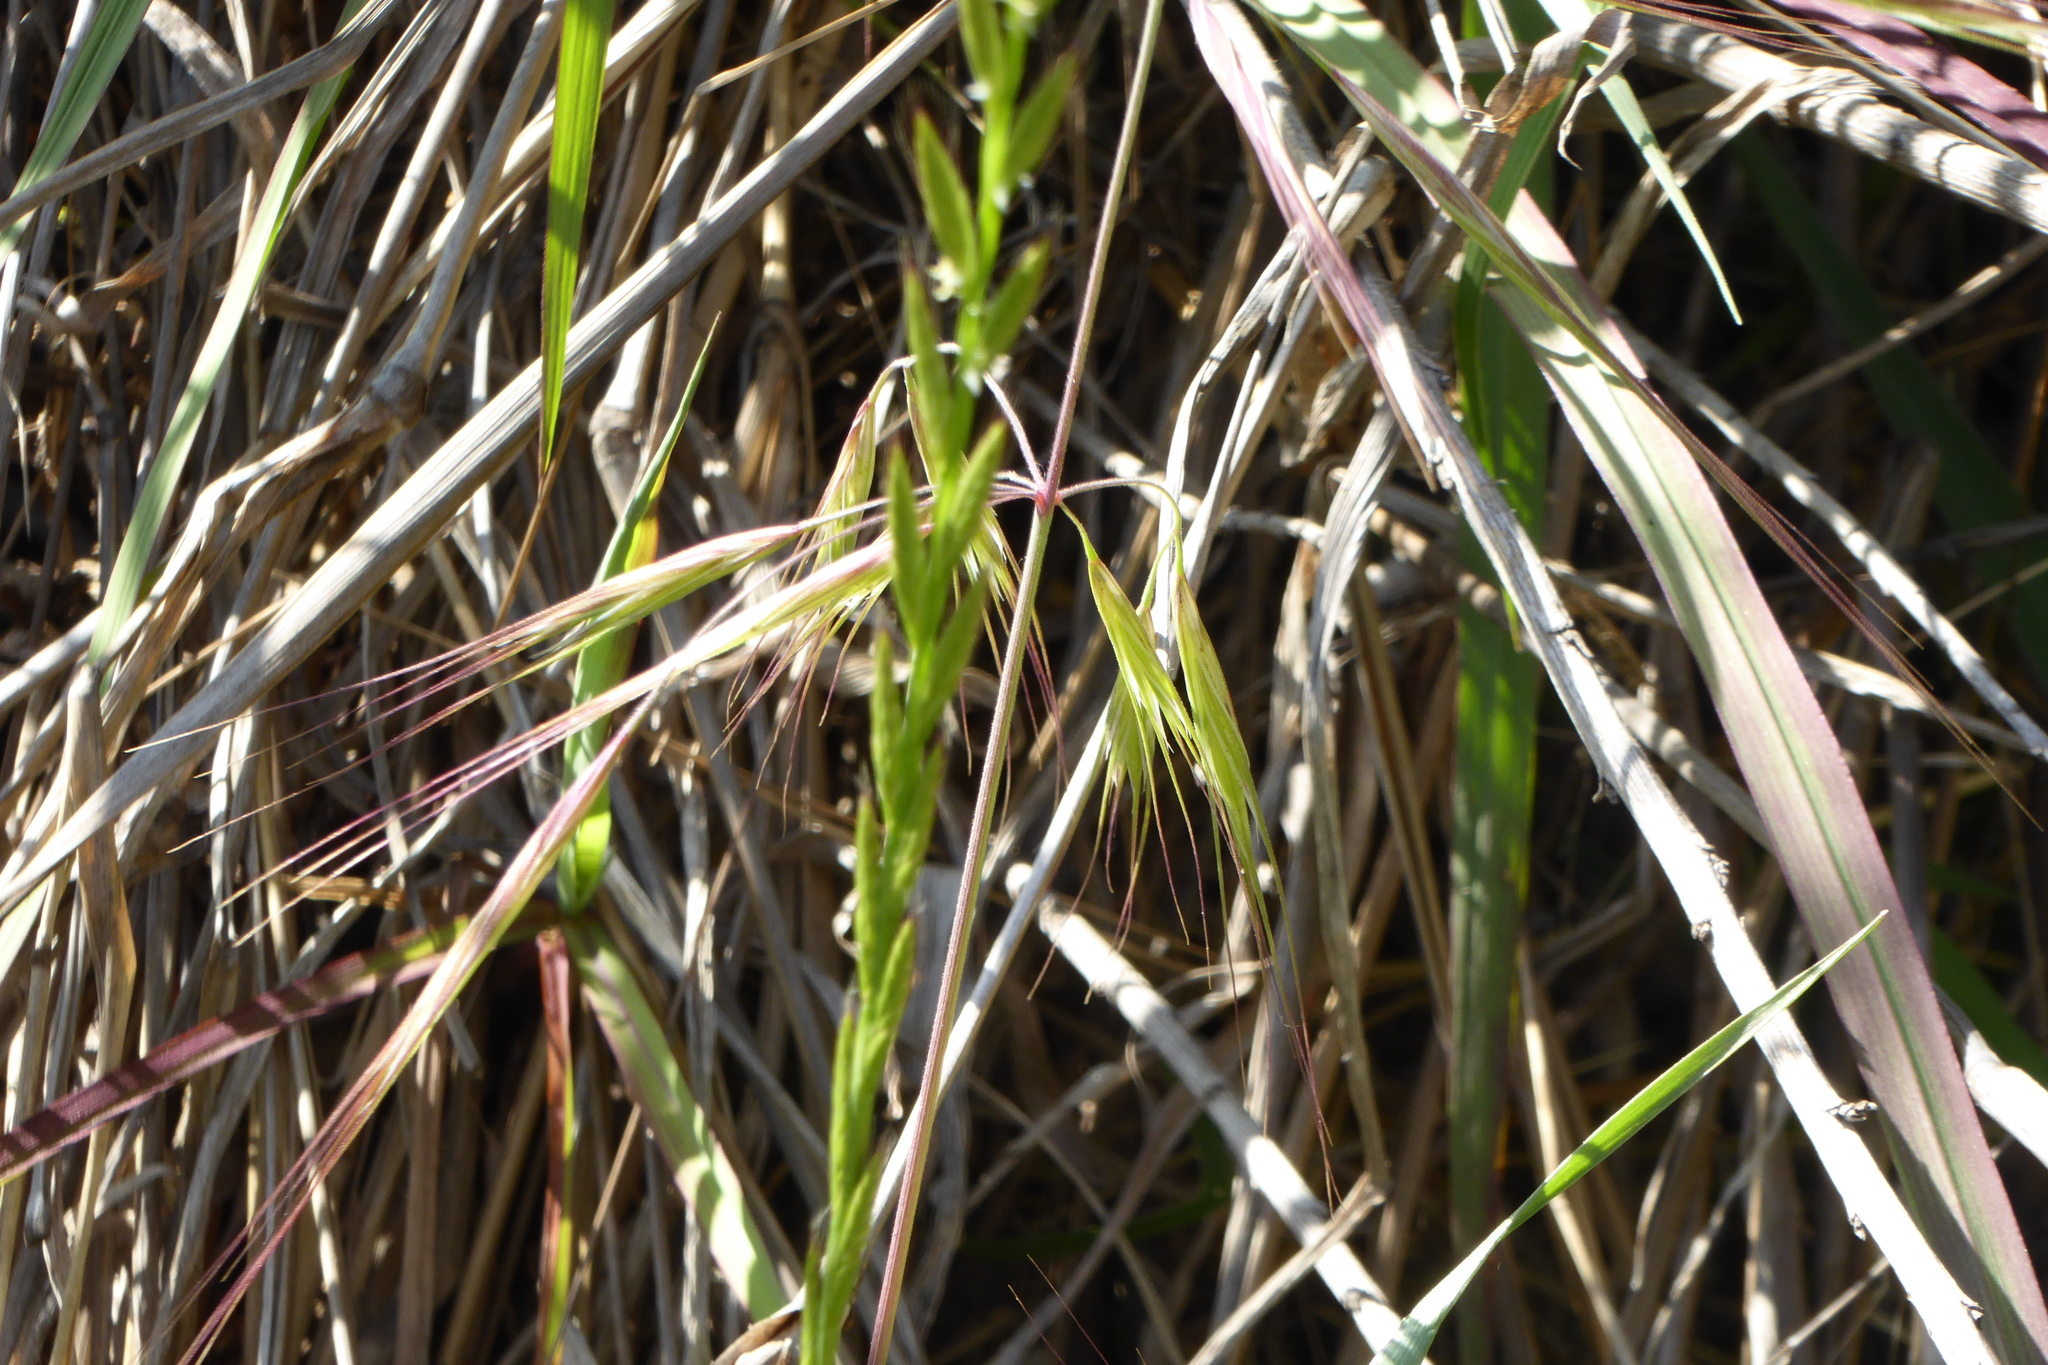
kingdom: Plantae
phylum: Tracheophyta
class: Liliopsida
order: Poales
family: Poaceae
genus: Lolium
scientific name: Lolium multiflorum
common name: Annual ryegrass
